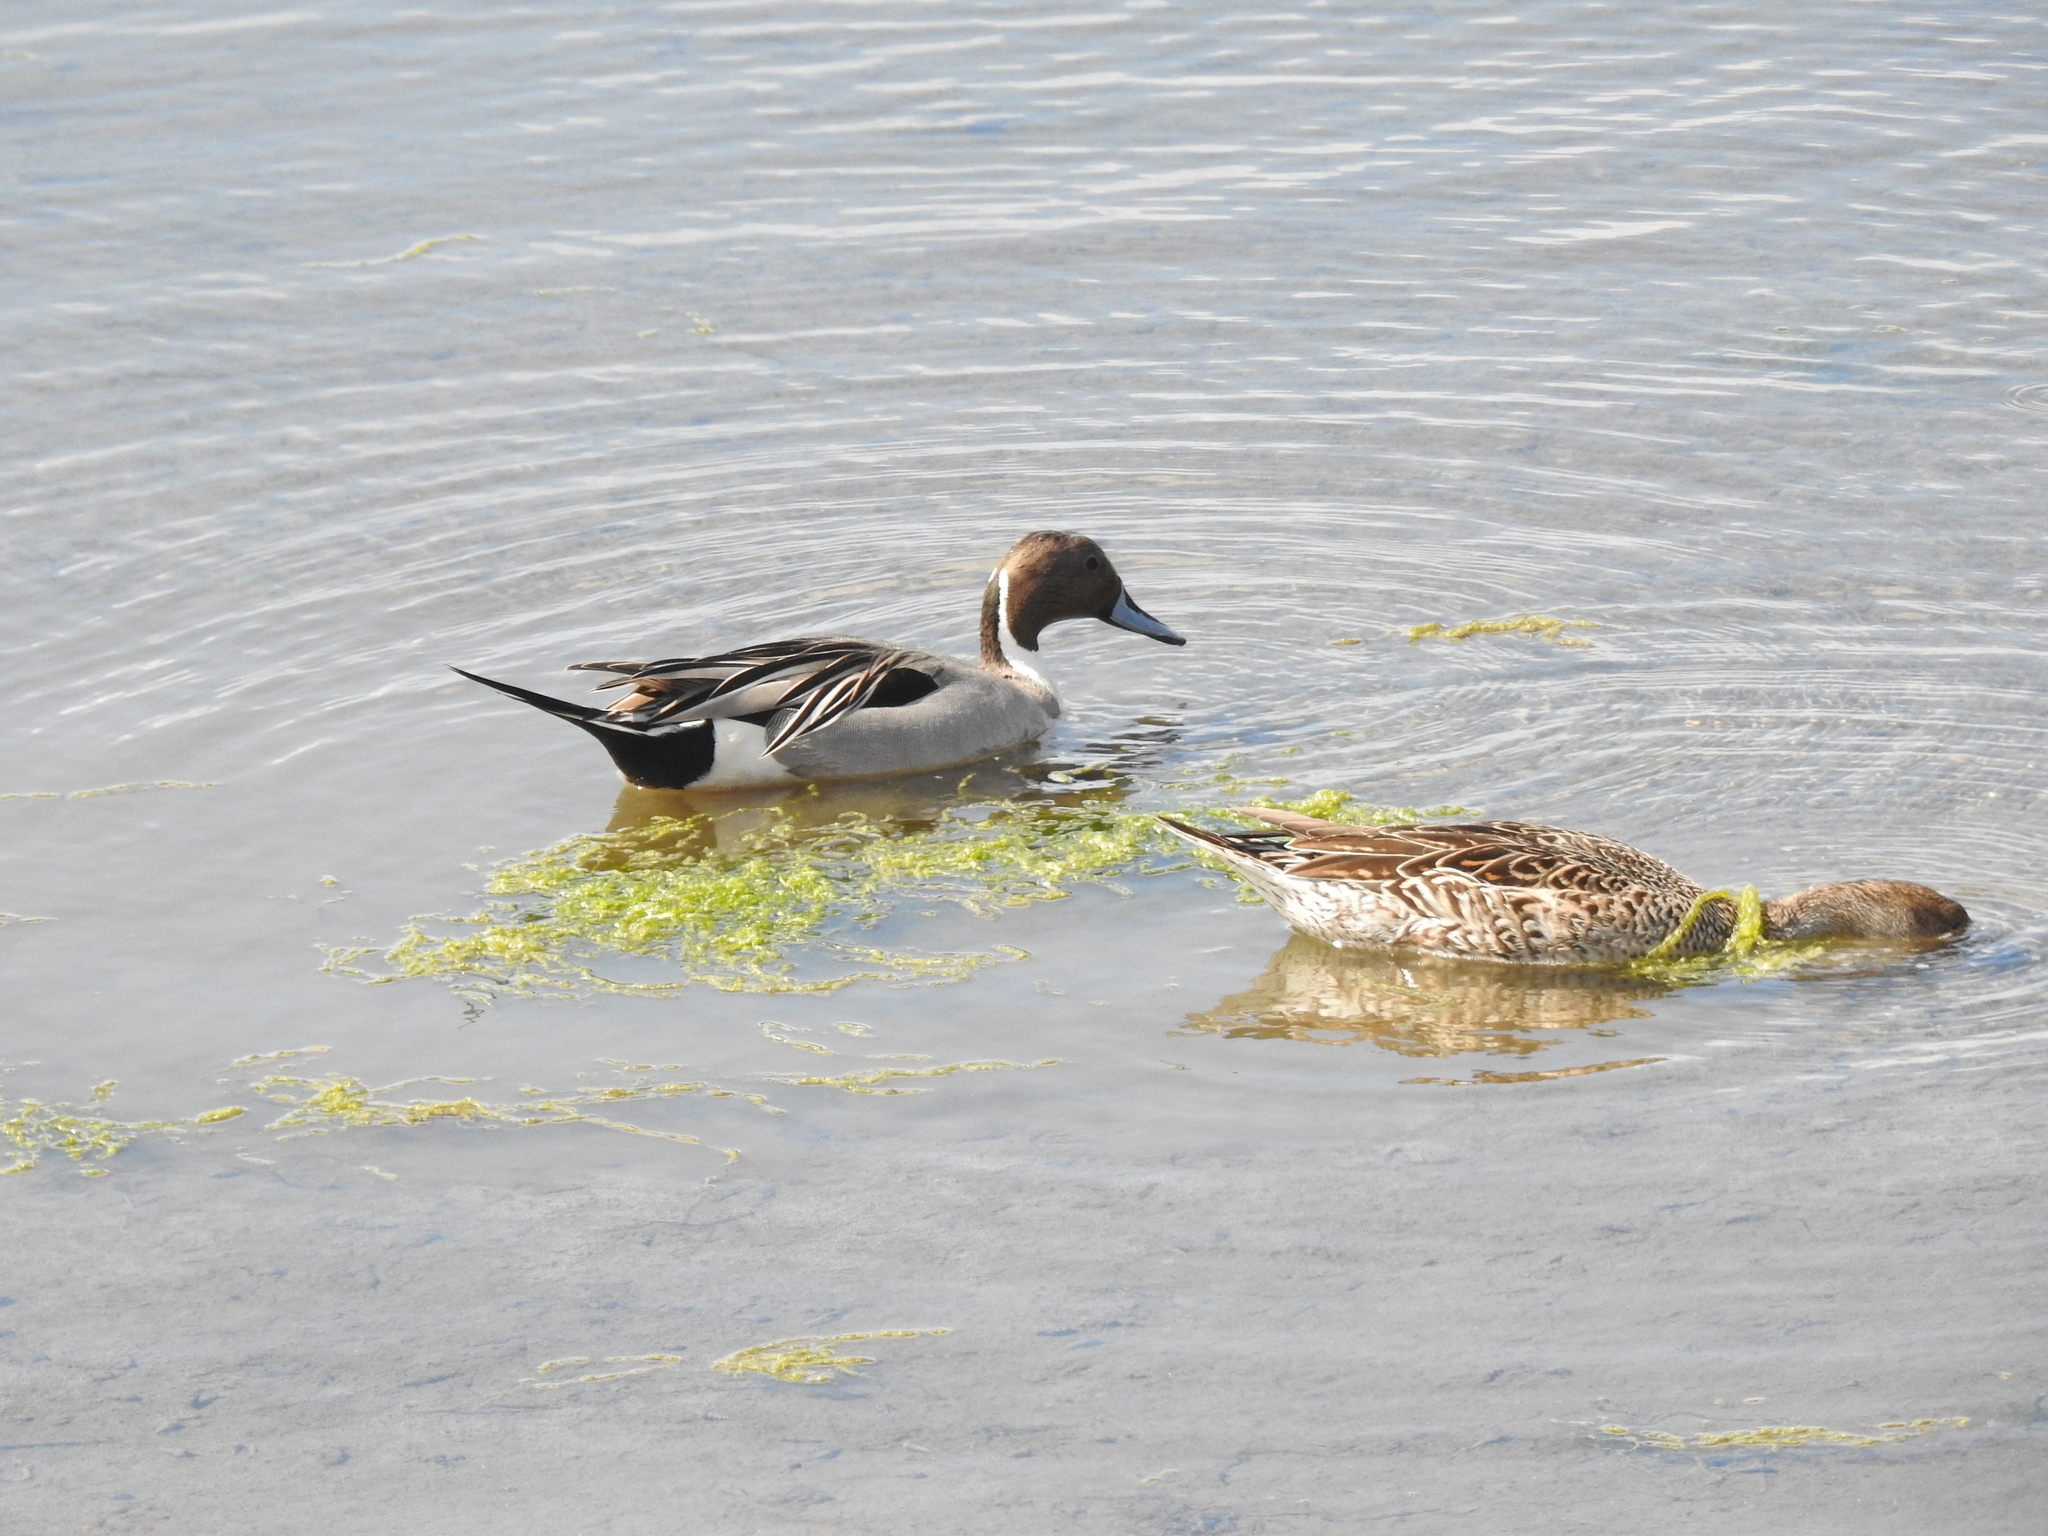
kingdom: Animalia
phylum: Chordata
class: Aves
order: Anseriformes
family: Anatidae
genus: Anas
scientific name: Anas acuta
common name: Northern pintail
